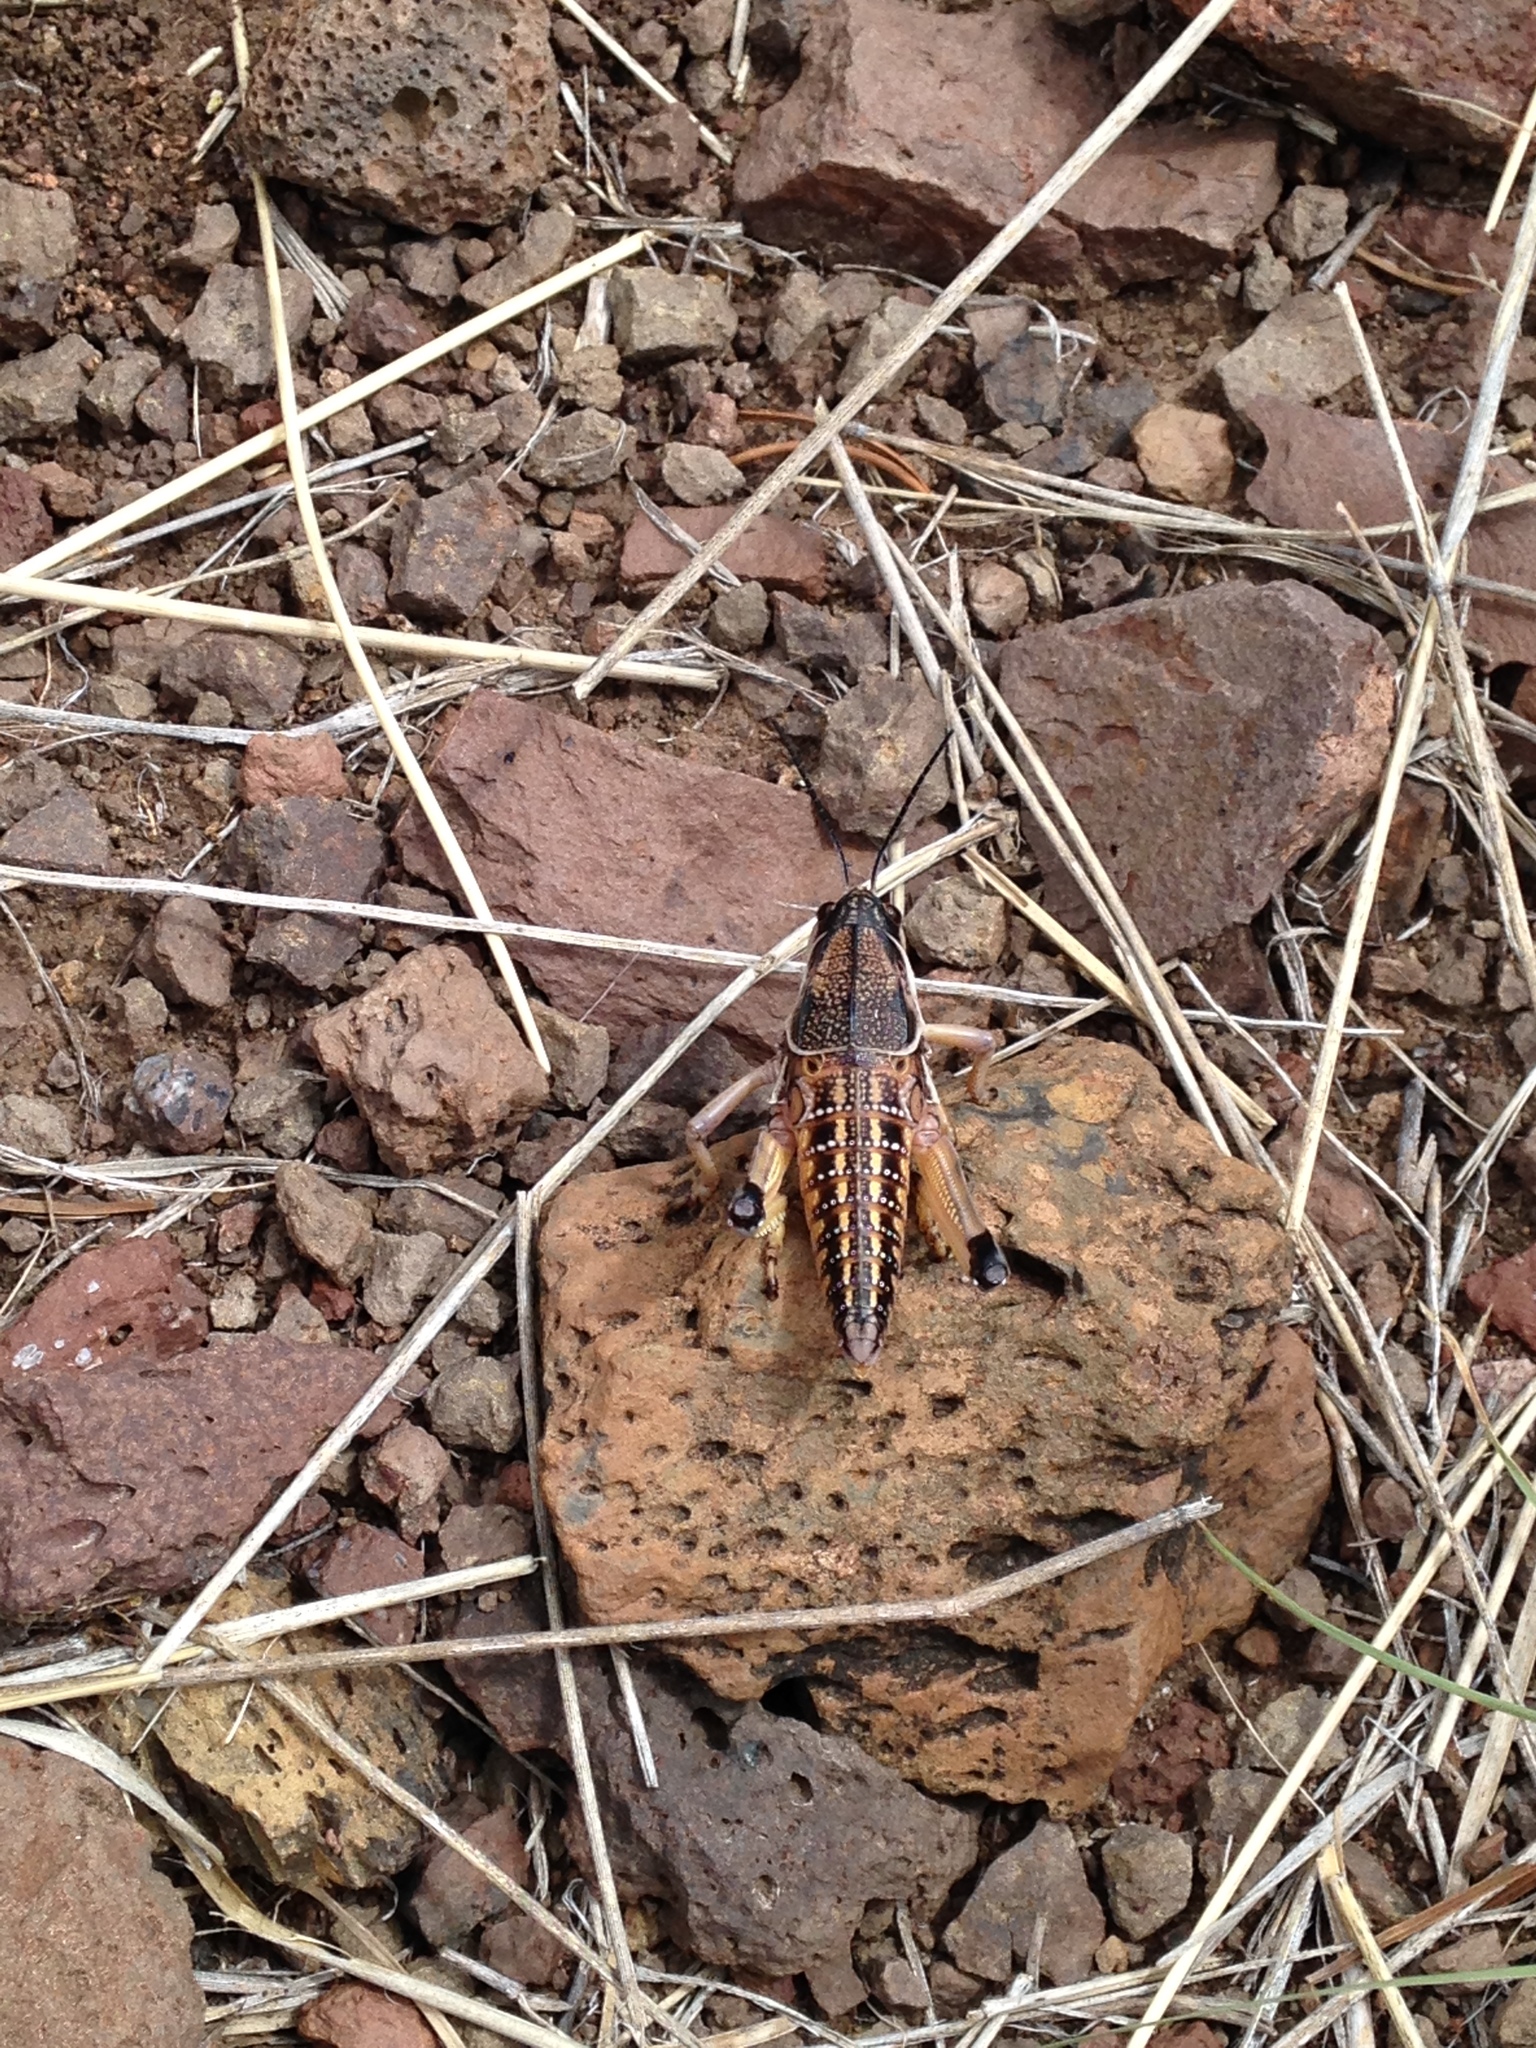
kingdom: Animalia
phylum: Arthropoda
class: Insecta
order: Orthoptera
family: Romaleidae
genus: Brachystola
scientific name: Brachystola magna
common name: Plains lubber grasshopper
